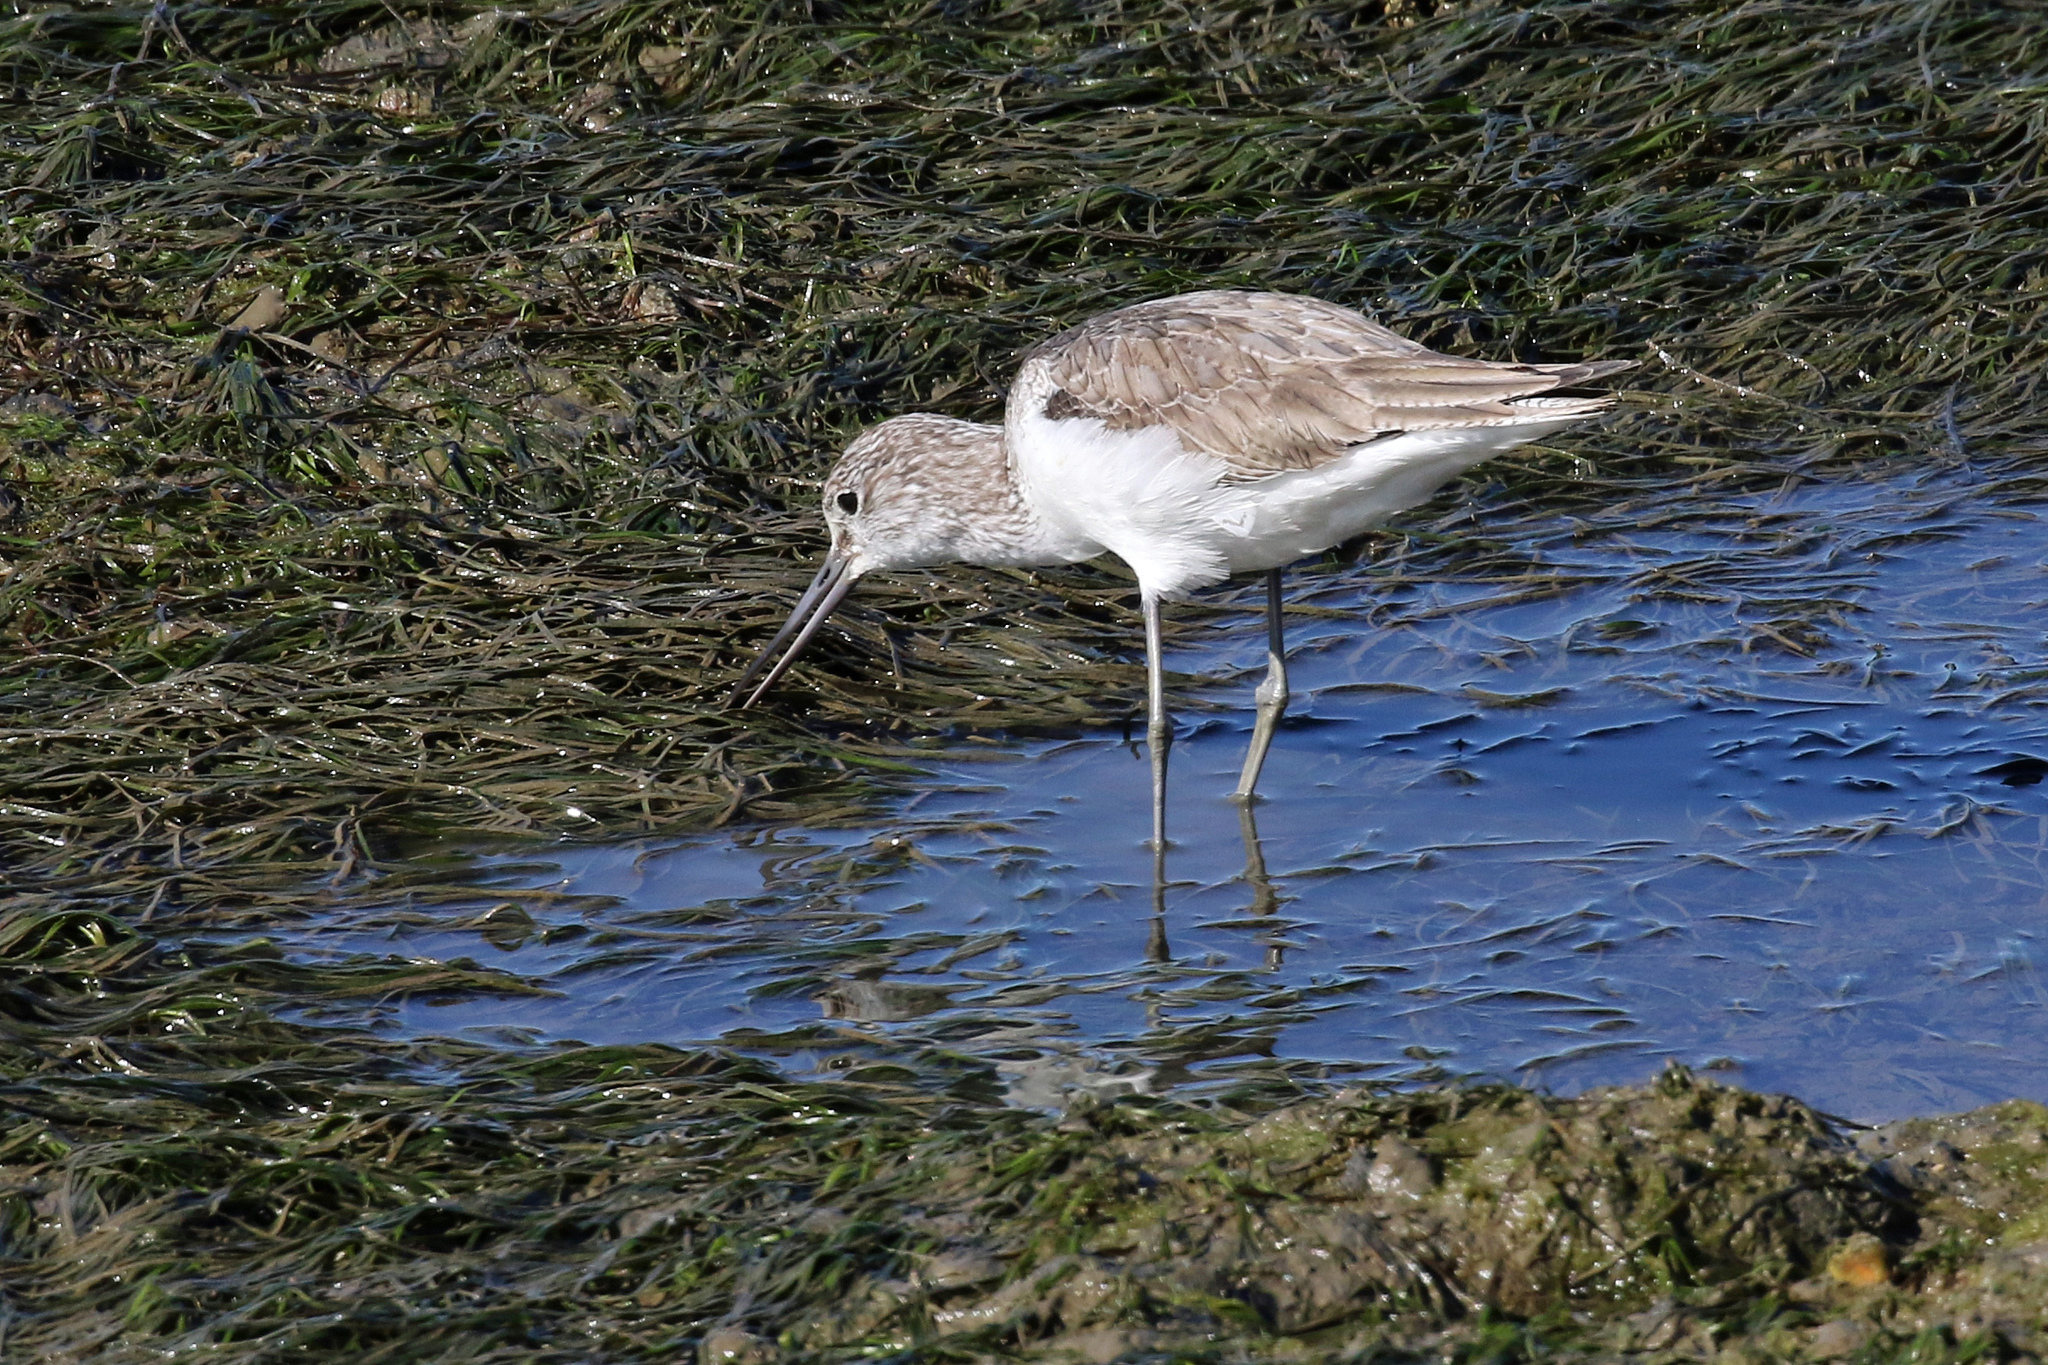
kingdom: Animalia
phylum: Chordata
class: Aves
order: Charadriiformes
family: Scolopacidae
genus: Tringa
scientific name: Tringa nebularia
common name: Common greenshank
